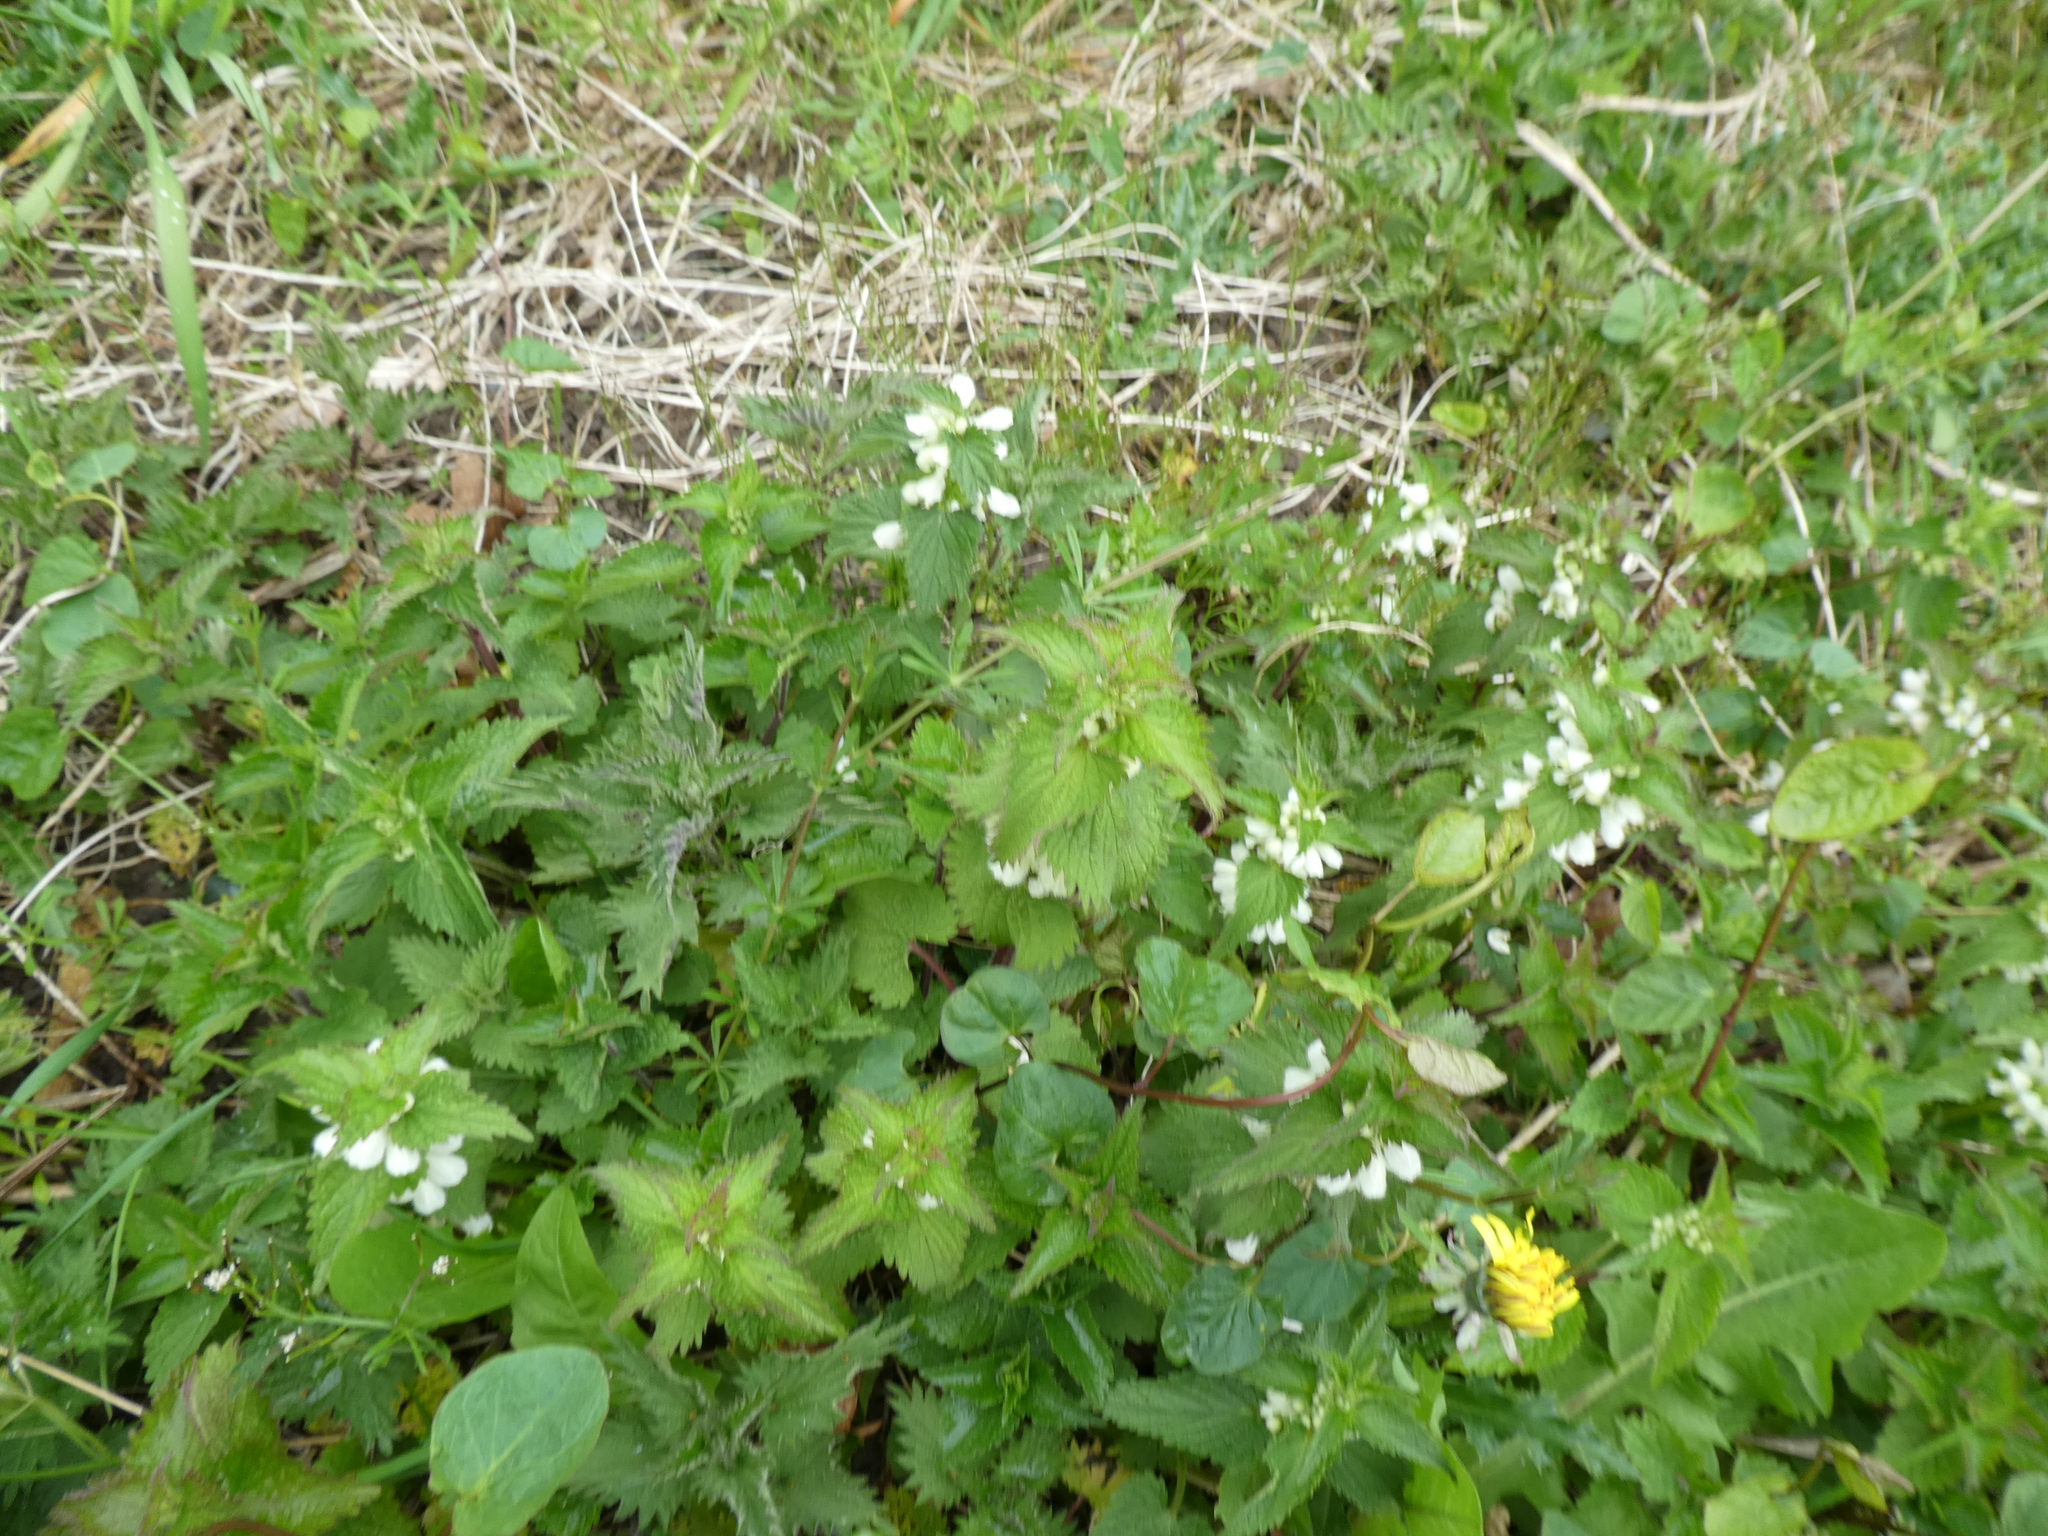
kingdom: Plantae
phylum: Tracheophyta
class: Magnoliopsida
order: Lamiales
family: Lamiaceae
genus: Lamium
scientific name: Lamium album
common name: White dead-nettle
